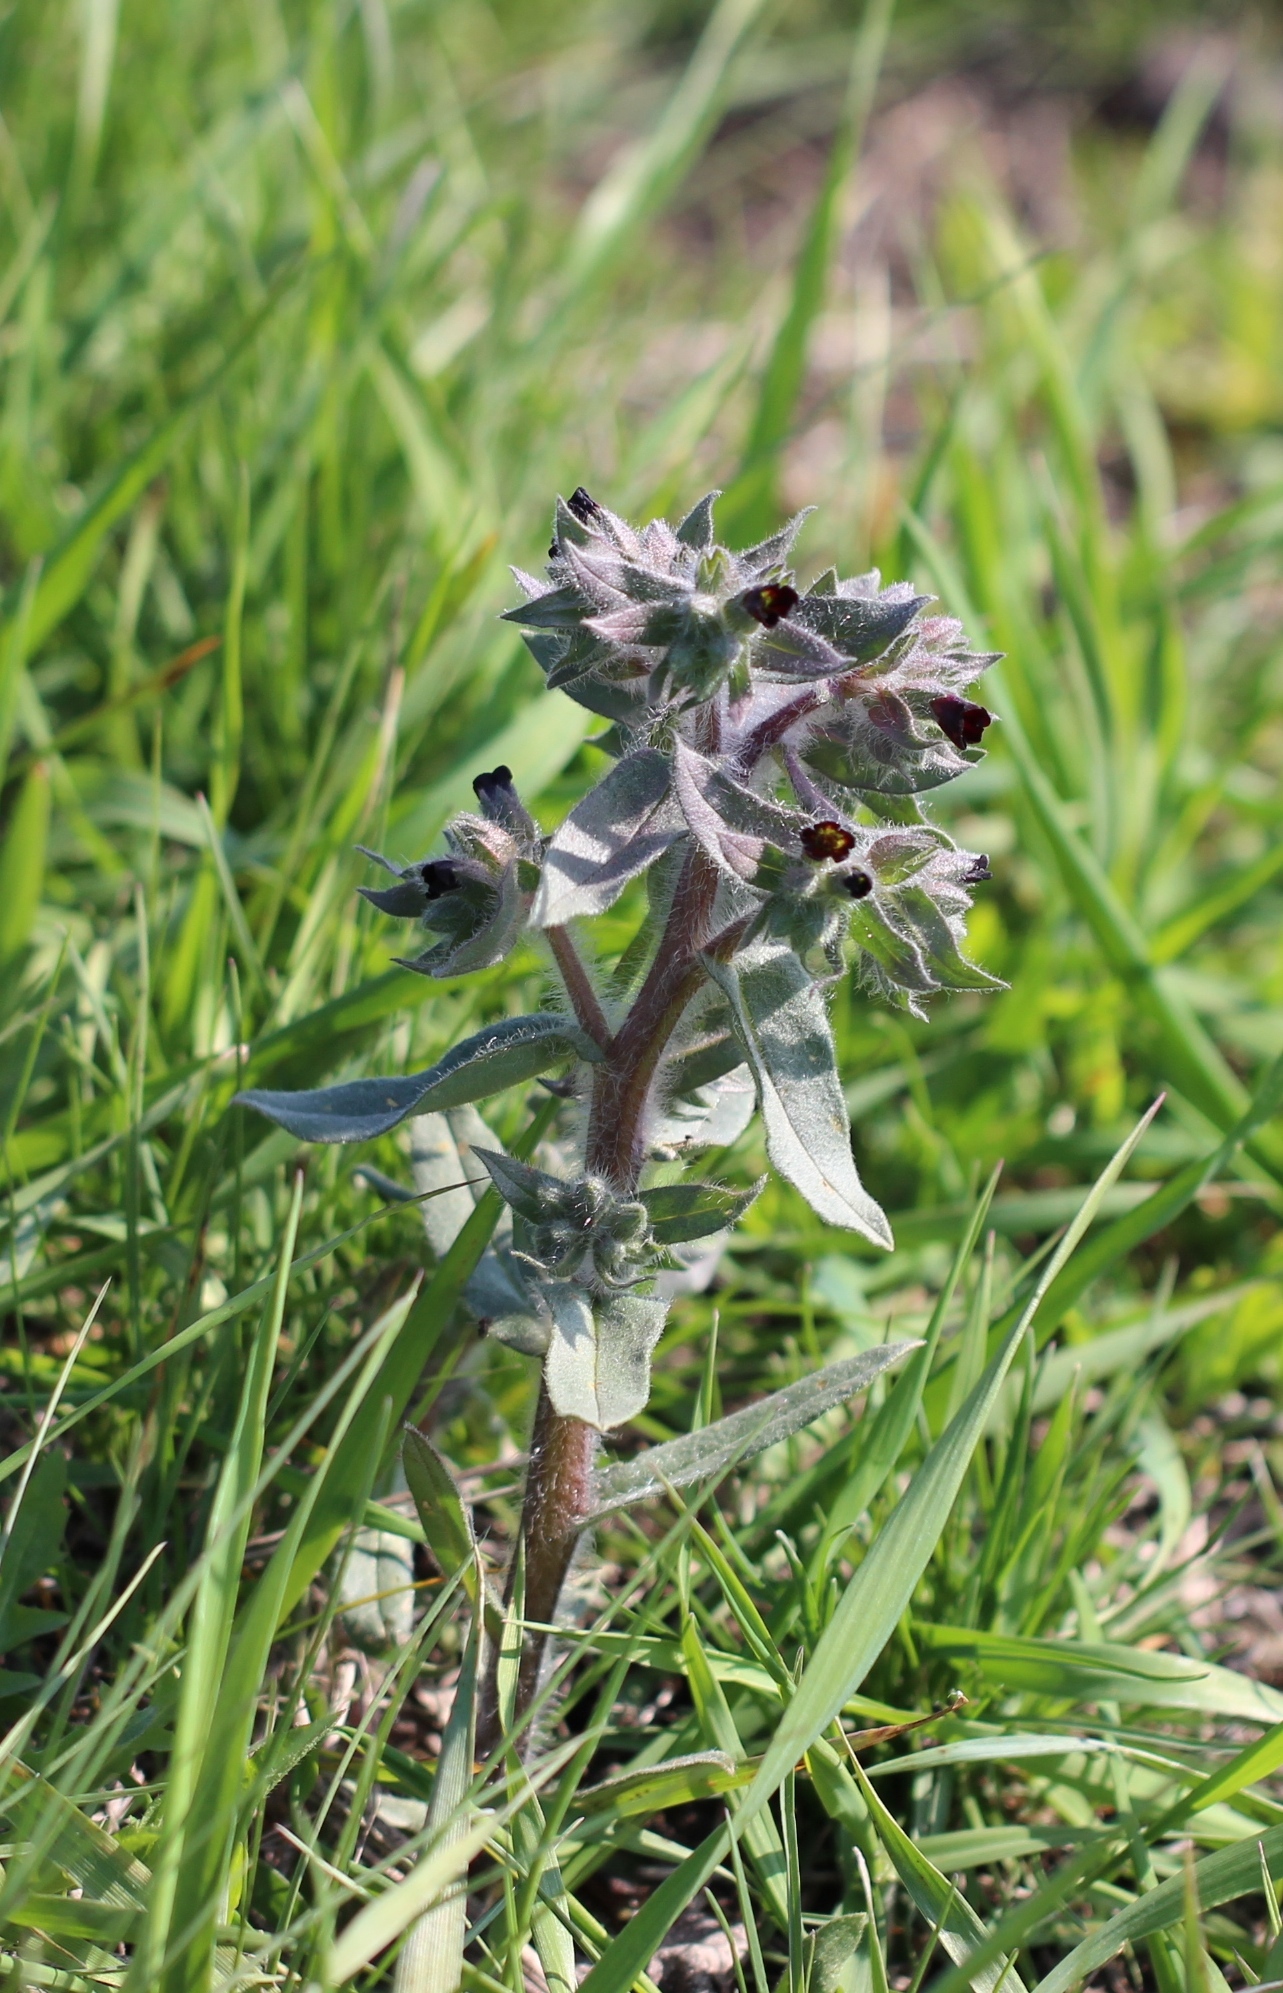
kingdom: Plantae
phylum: Tracheophyta
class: Magnoliopsida
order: Boraginales
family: Boraginaceae
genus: Nonea
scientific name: Nonea pulla
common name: Brown nonea
